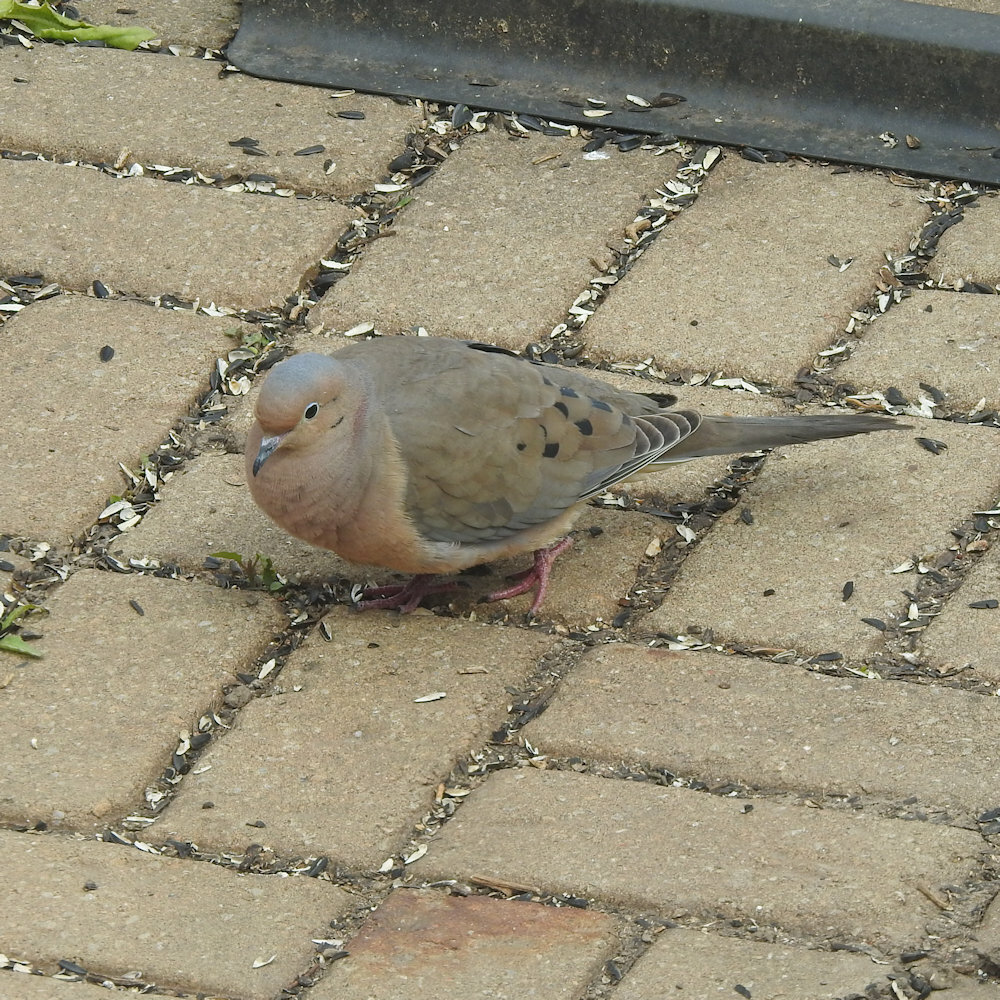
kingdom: Animalia
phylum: Chordata
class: Aves
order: Columbiformes
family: Columbidae
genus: Zenaida
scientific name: Zenaida macroura
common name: Mourning dove
